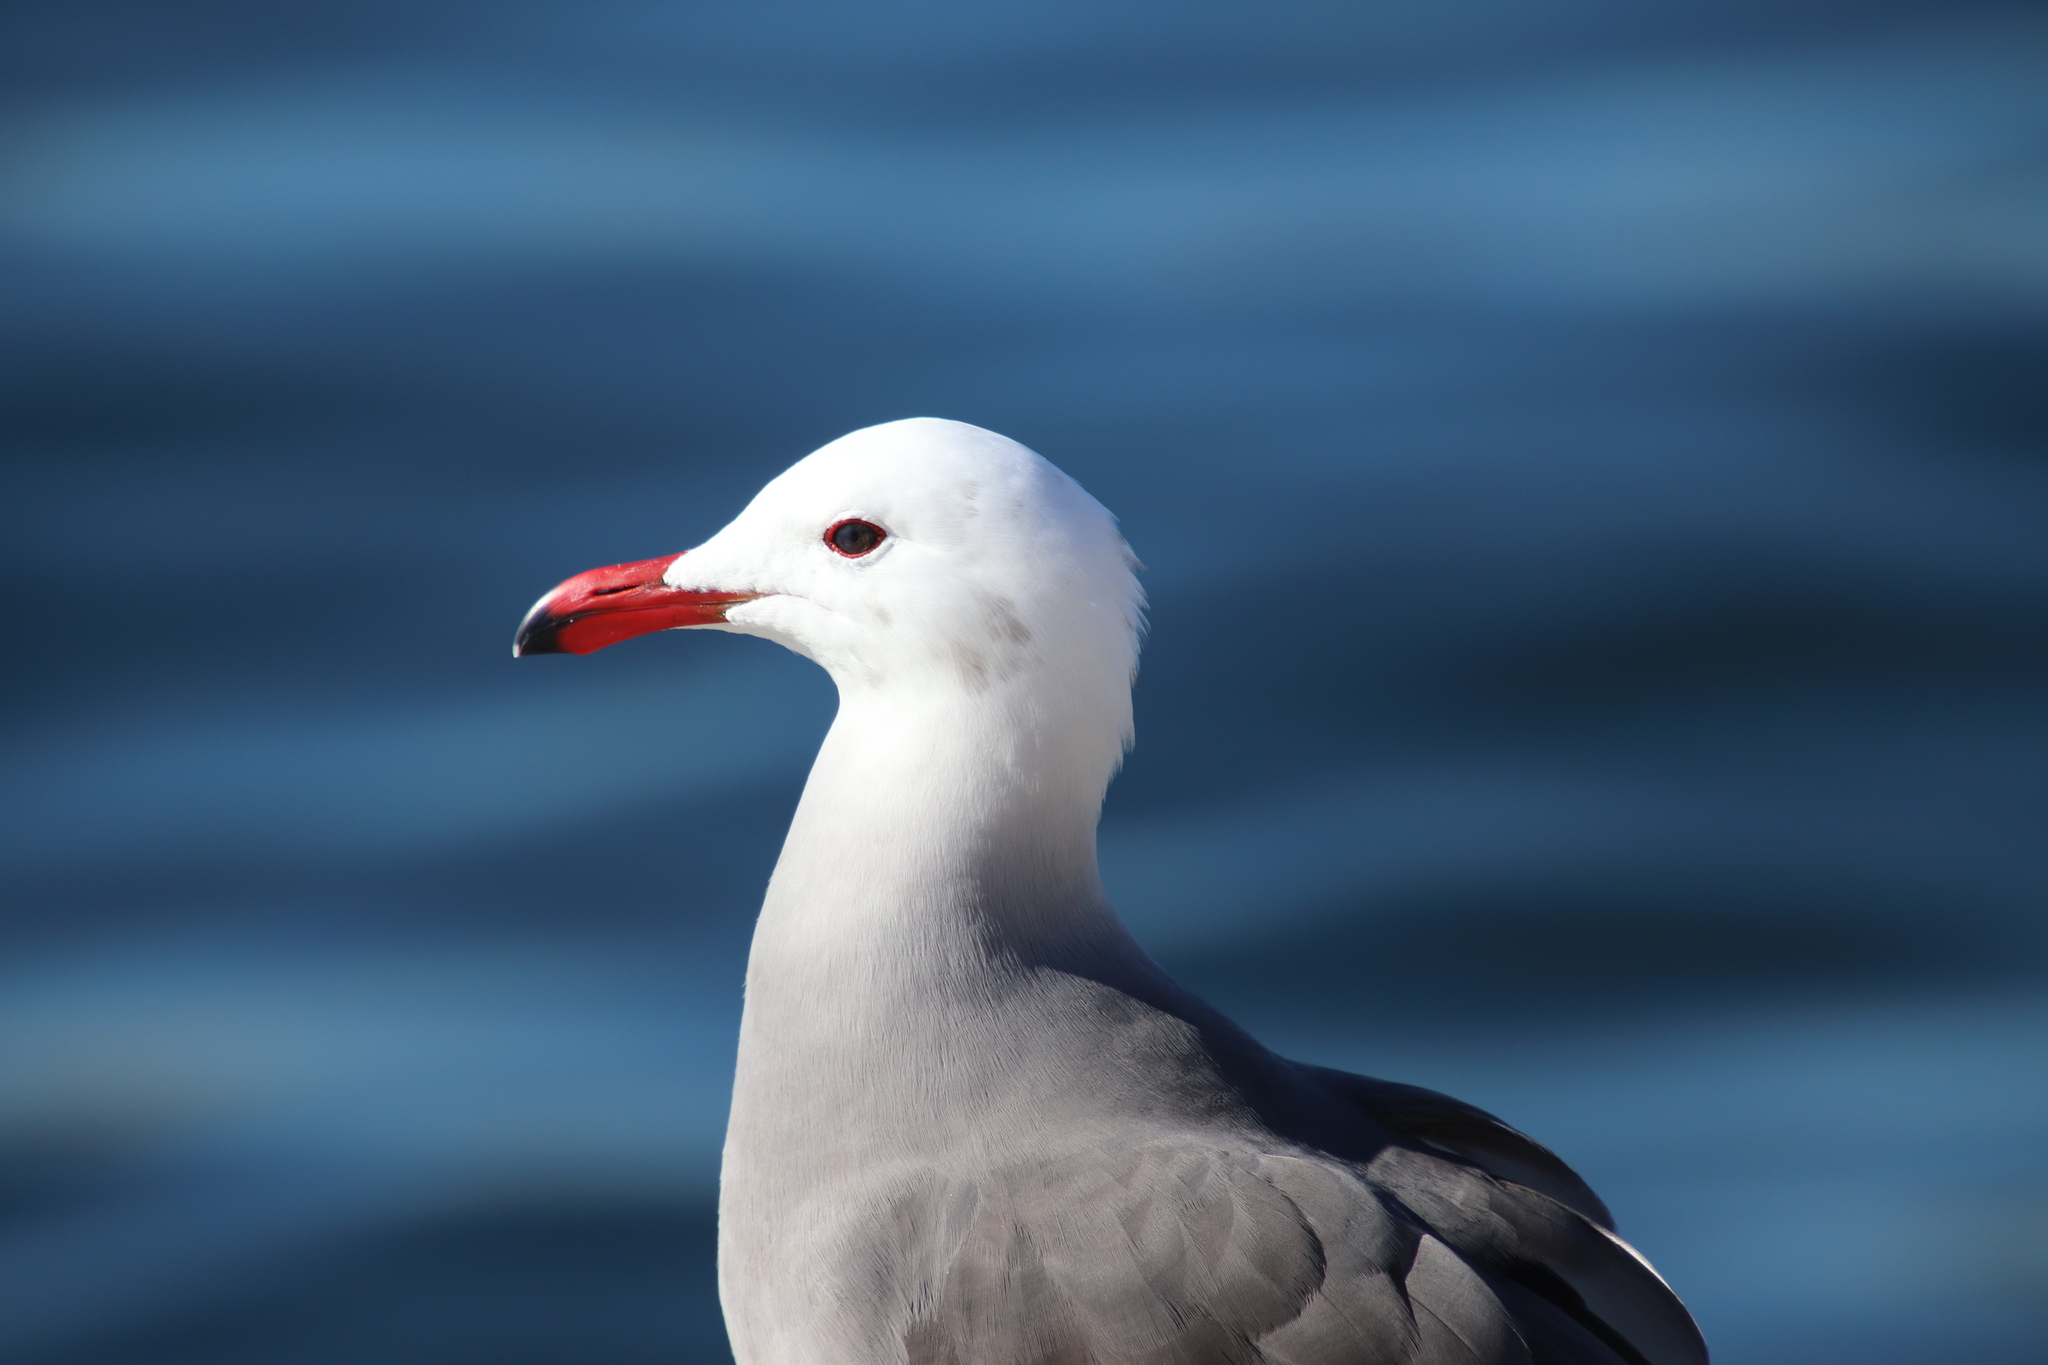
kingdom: Animalia
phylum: Chordata
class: Aves
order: Charadriiformes
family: Laridae
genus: Larus
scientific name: Larus heermanni
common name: Heermann's gull
